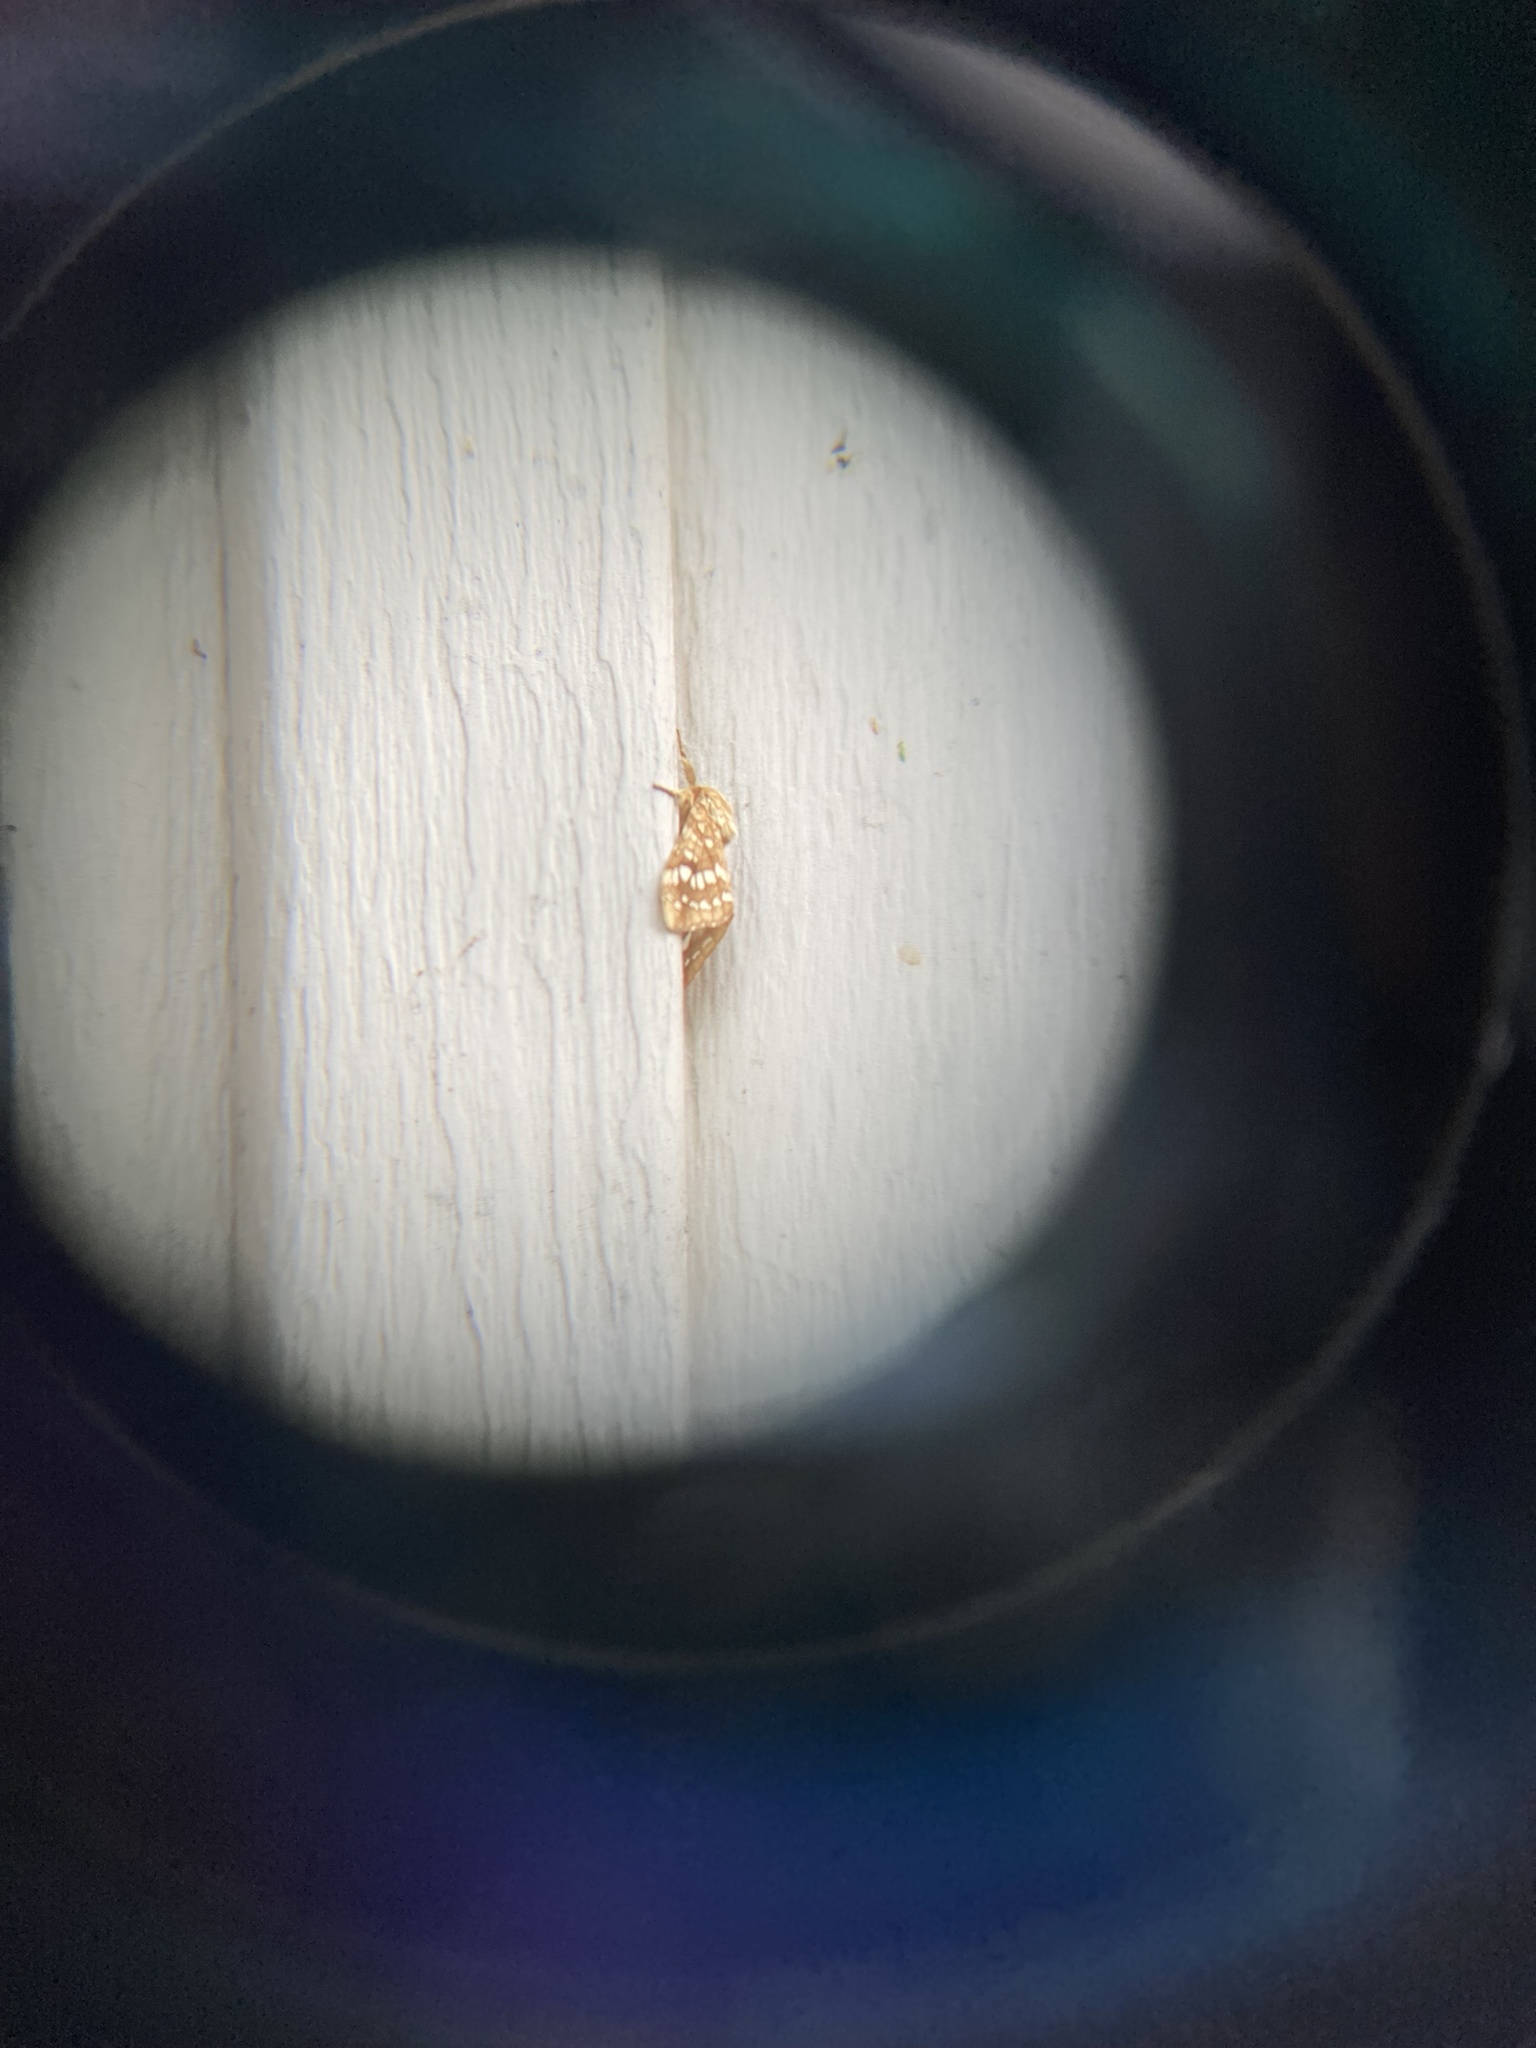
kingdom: Animalia
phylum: Arthropoda
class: Insecta
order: Lepidoptera
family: Erebidae
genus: Lophocampa
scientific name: Lophocampa caryae
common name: Hickory tussock moth
